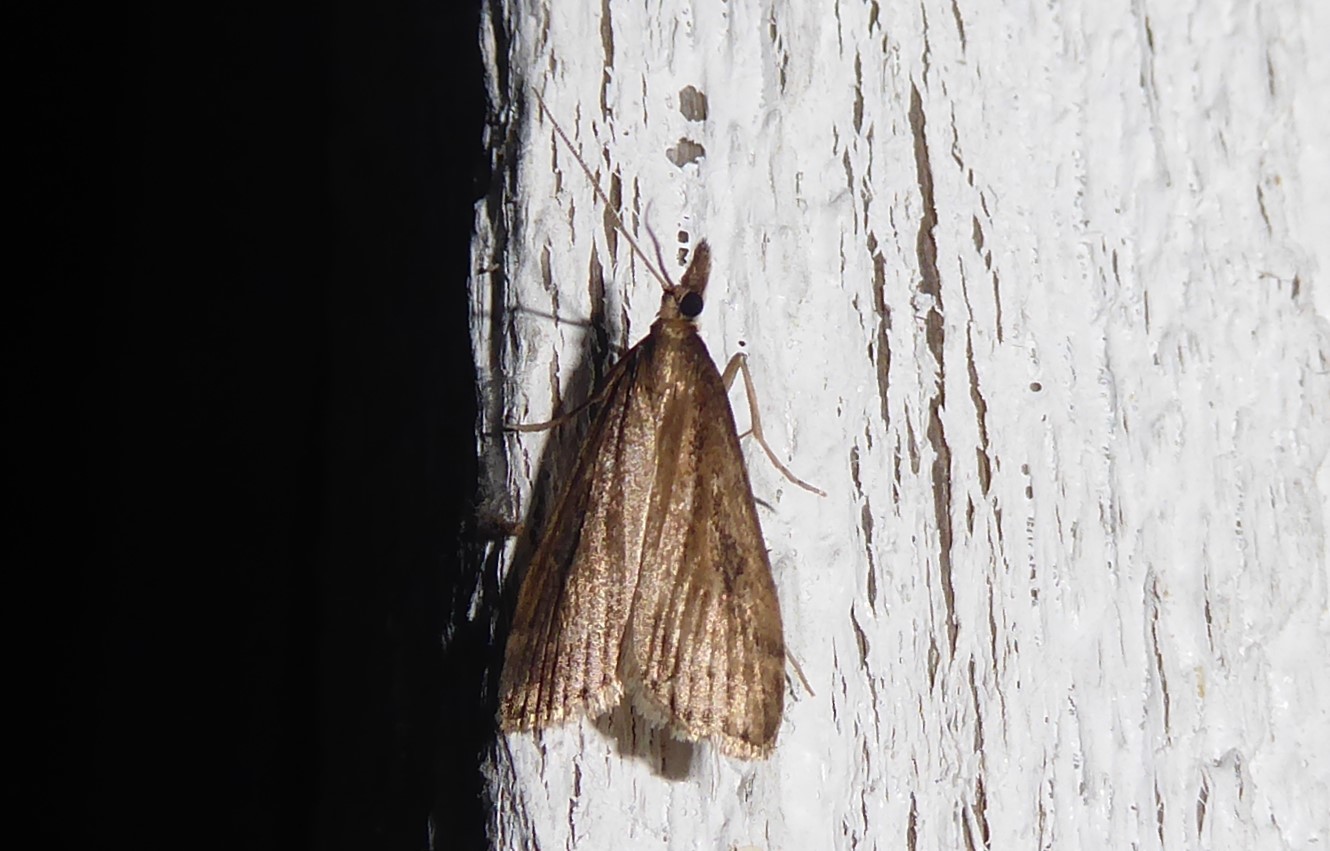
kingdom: Animalia
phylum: Arthropoda
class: Insecta
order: Lepidoptera
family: Crambidae
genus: Eudonia
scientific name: Eudonia octophora
